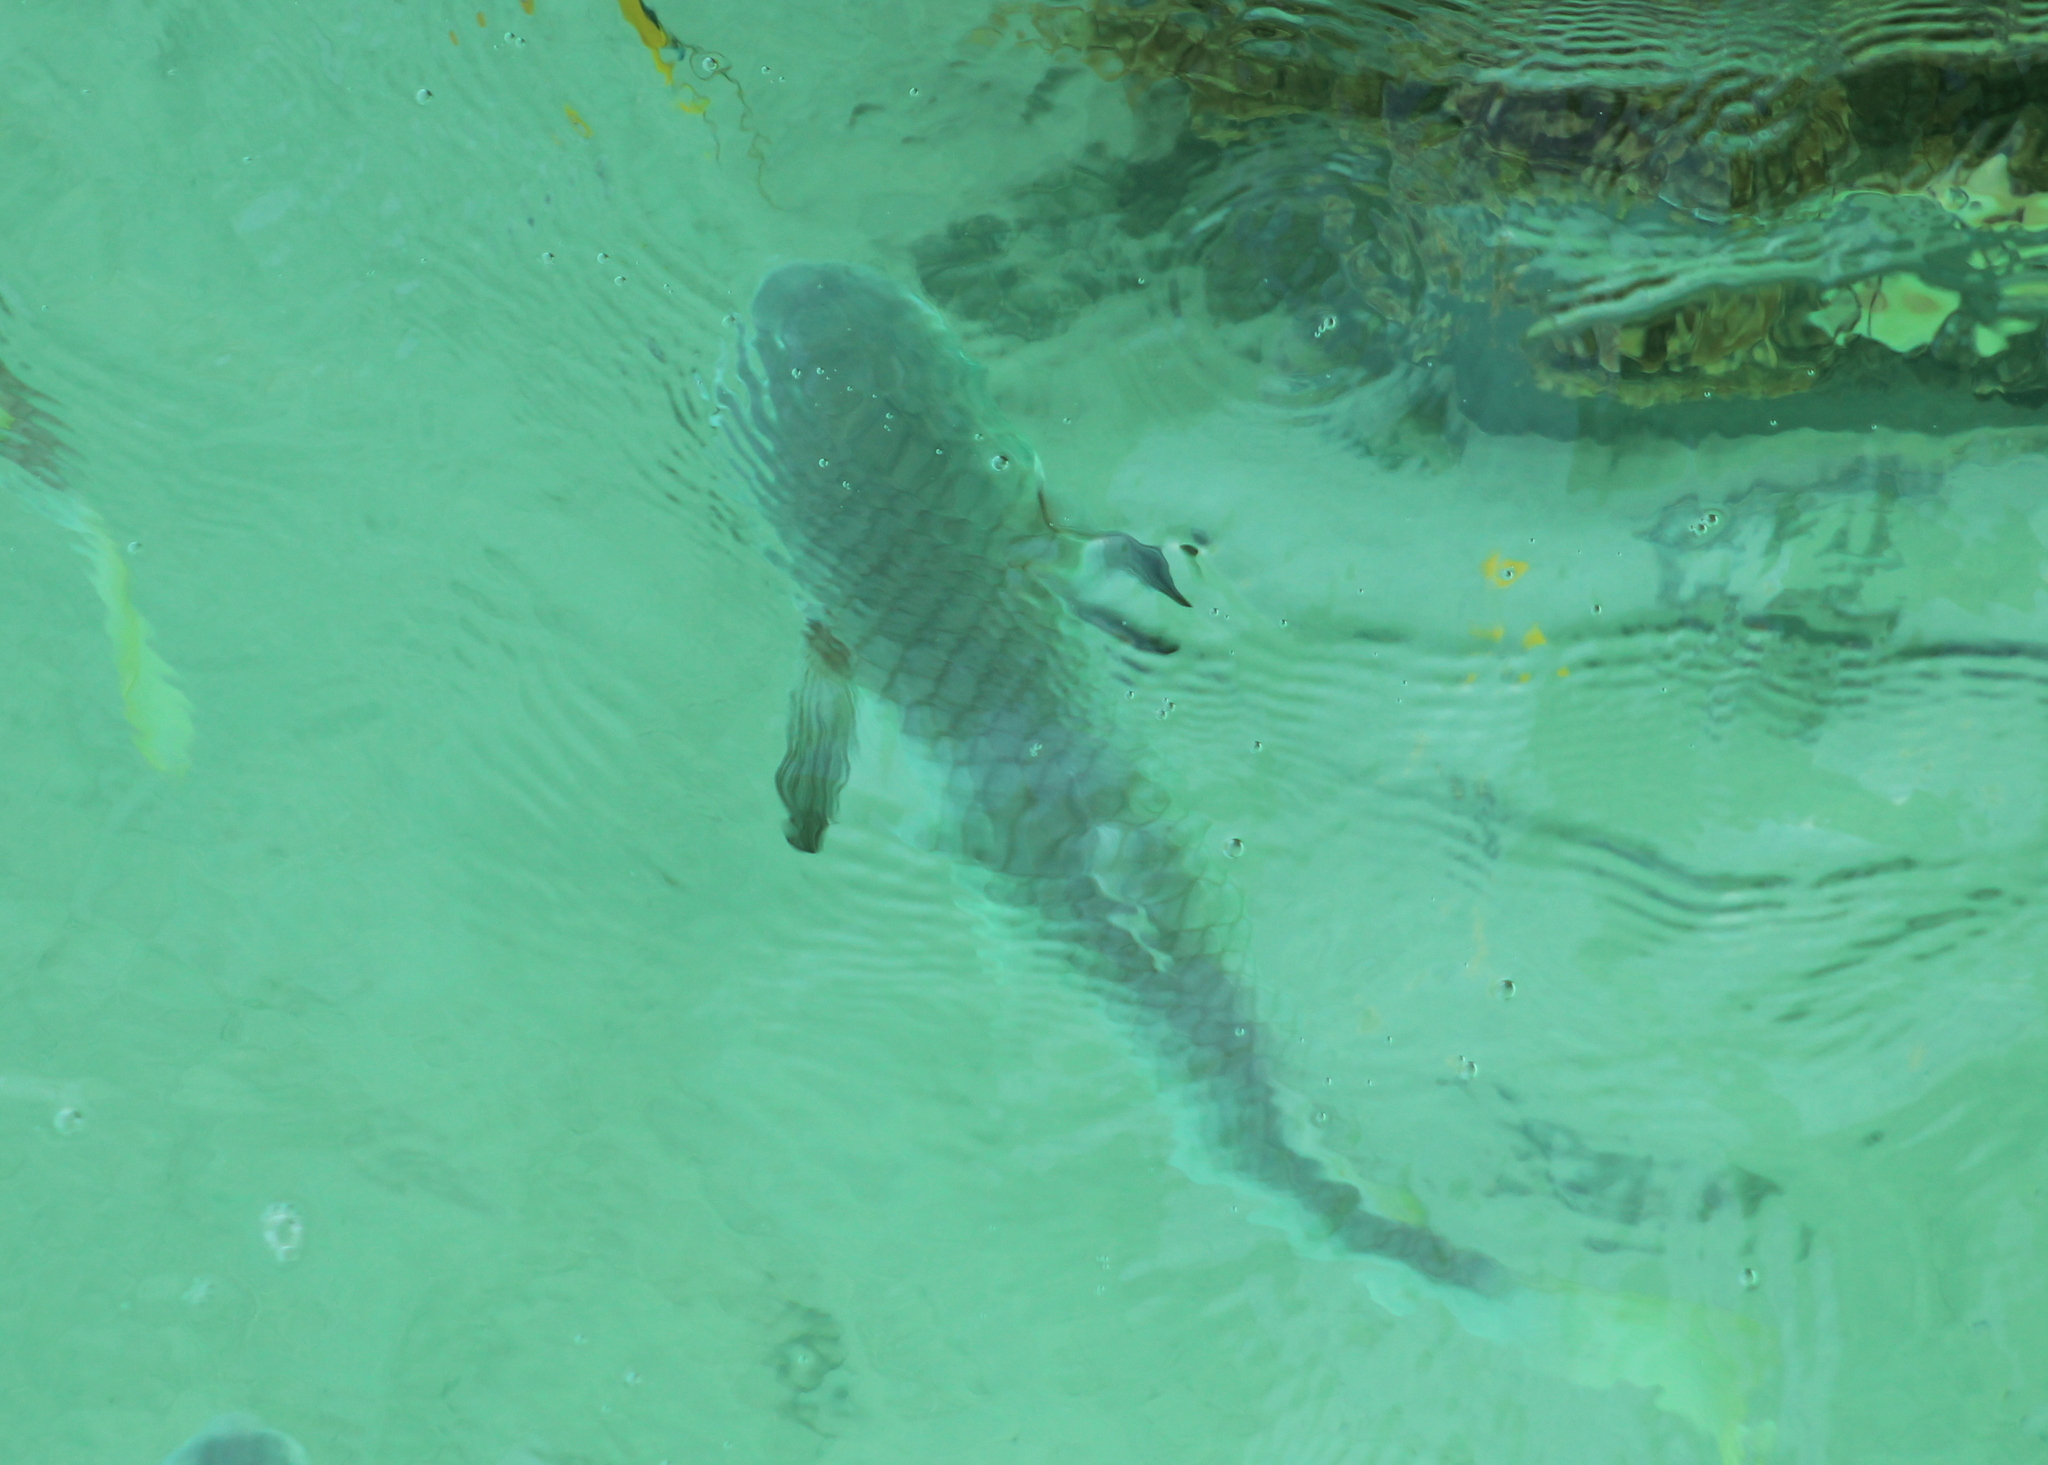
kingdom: Animalia
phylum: Chordata
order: Mugiliformes
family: Mugilidae
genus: Ellochelon
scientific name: Ellochelon vaigiensis
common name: Squaretail mullet
